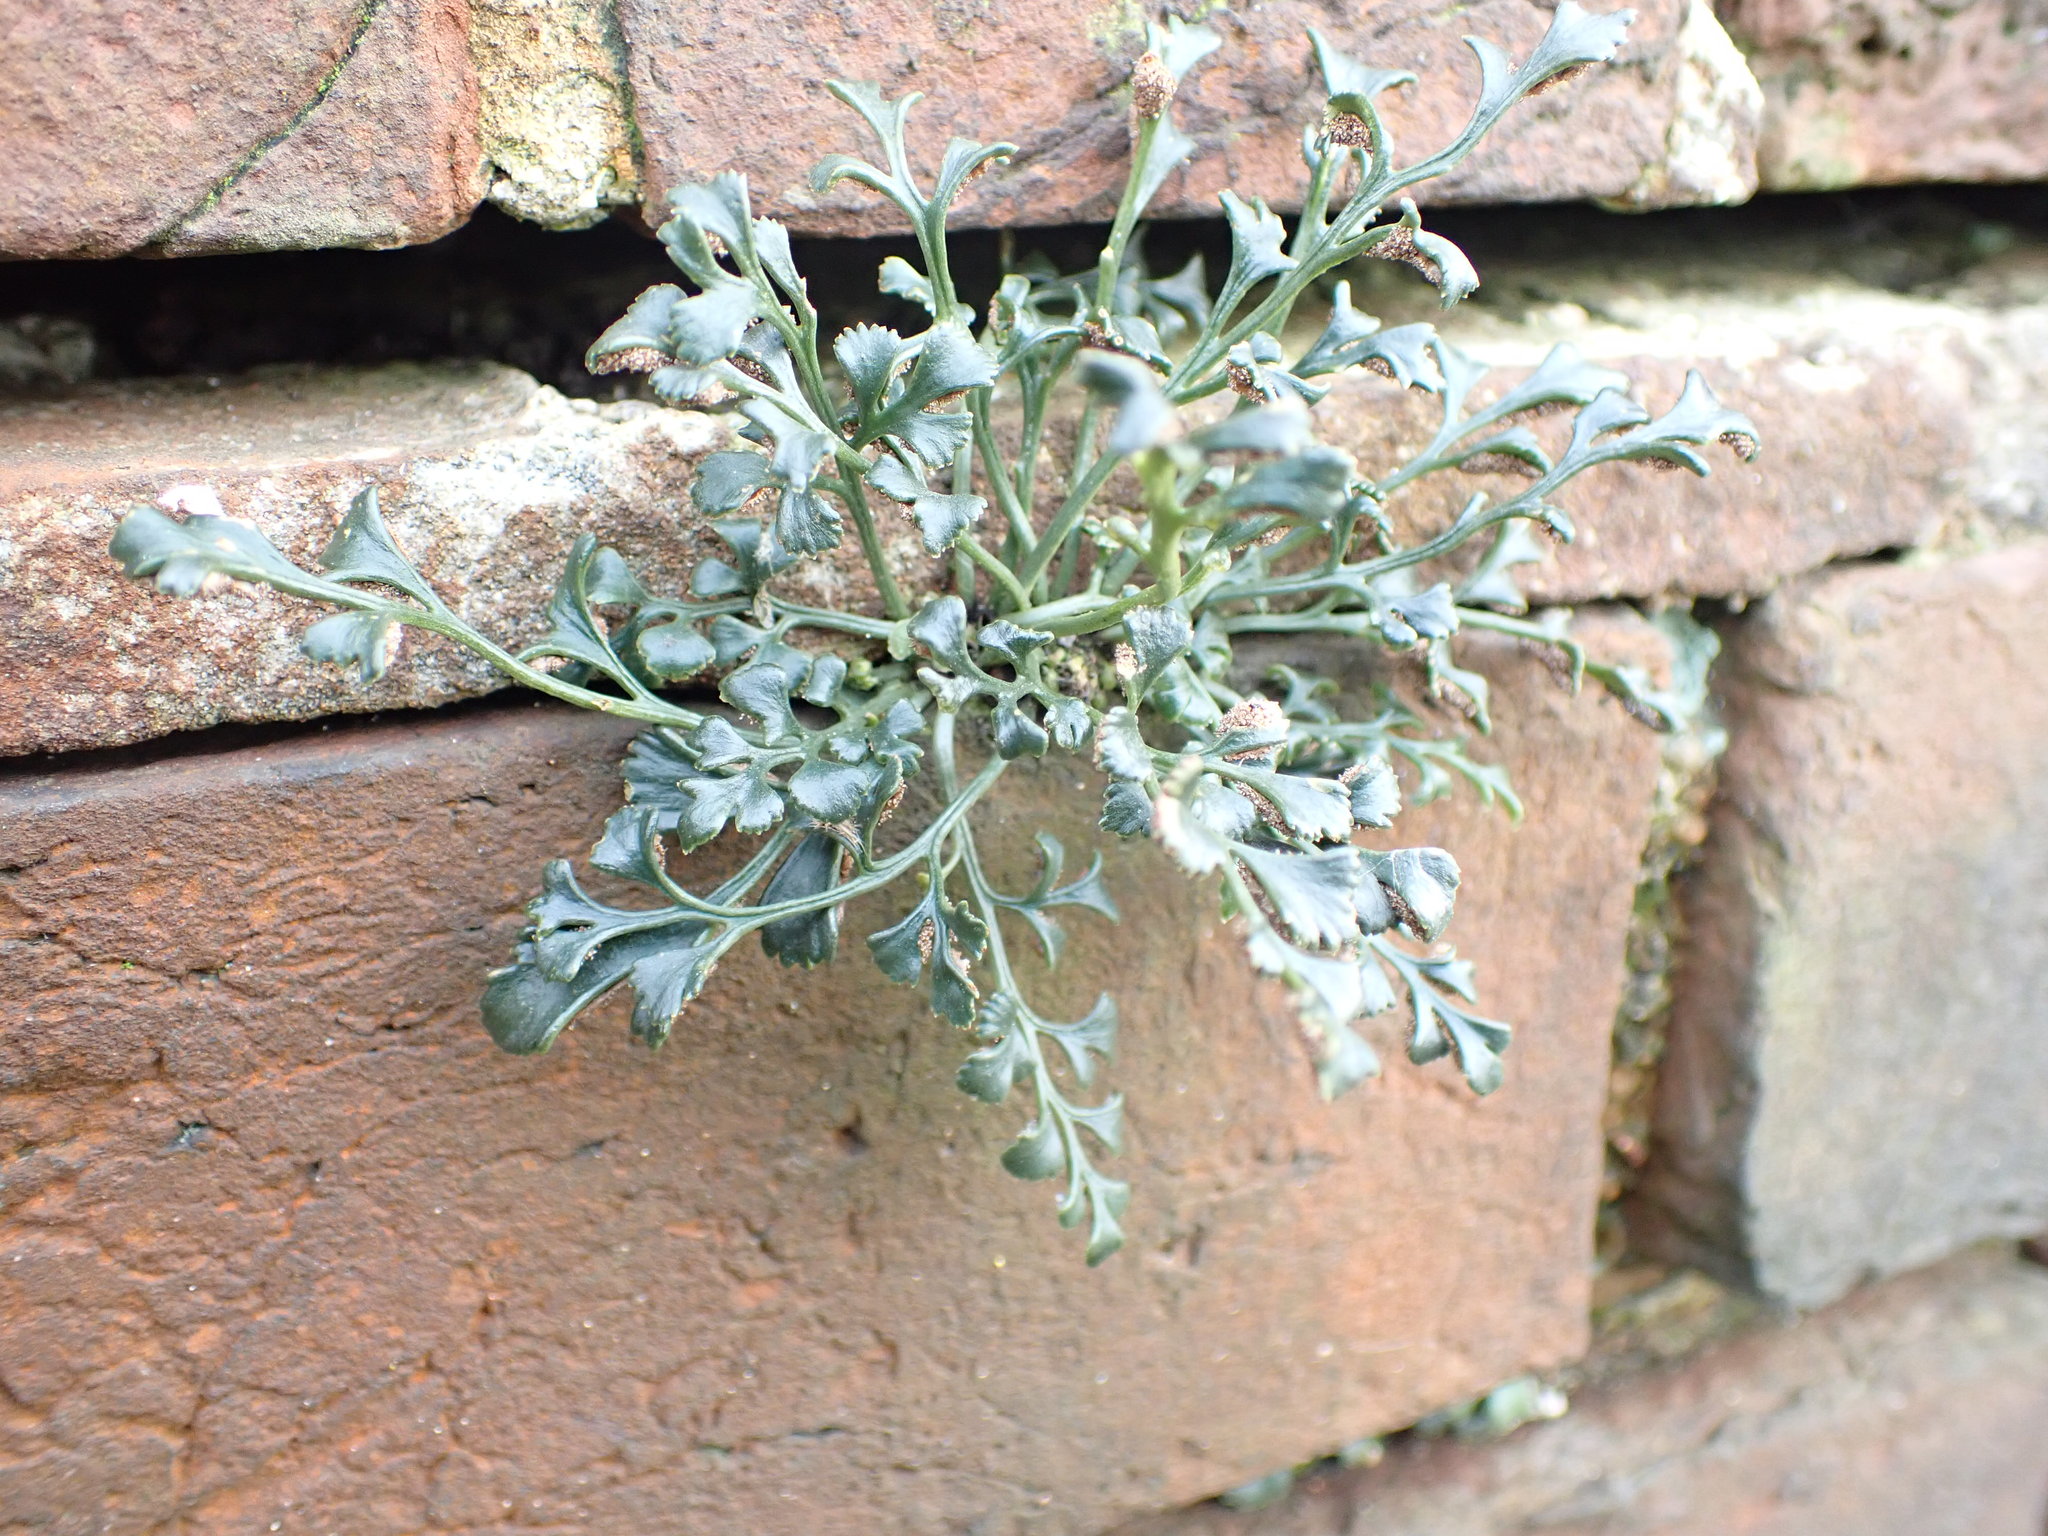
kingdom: Plantae
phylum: Tracheophyta
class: Polypodiopsida
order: Polypodiales
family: Aspleniaceae
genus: Asplenium
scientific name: Asplenium ruta-muraria
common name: Wall-rue
